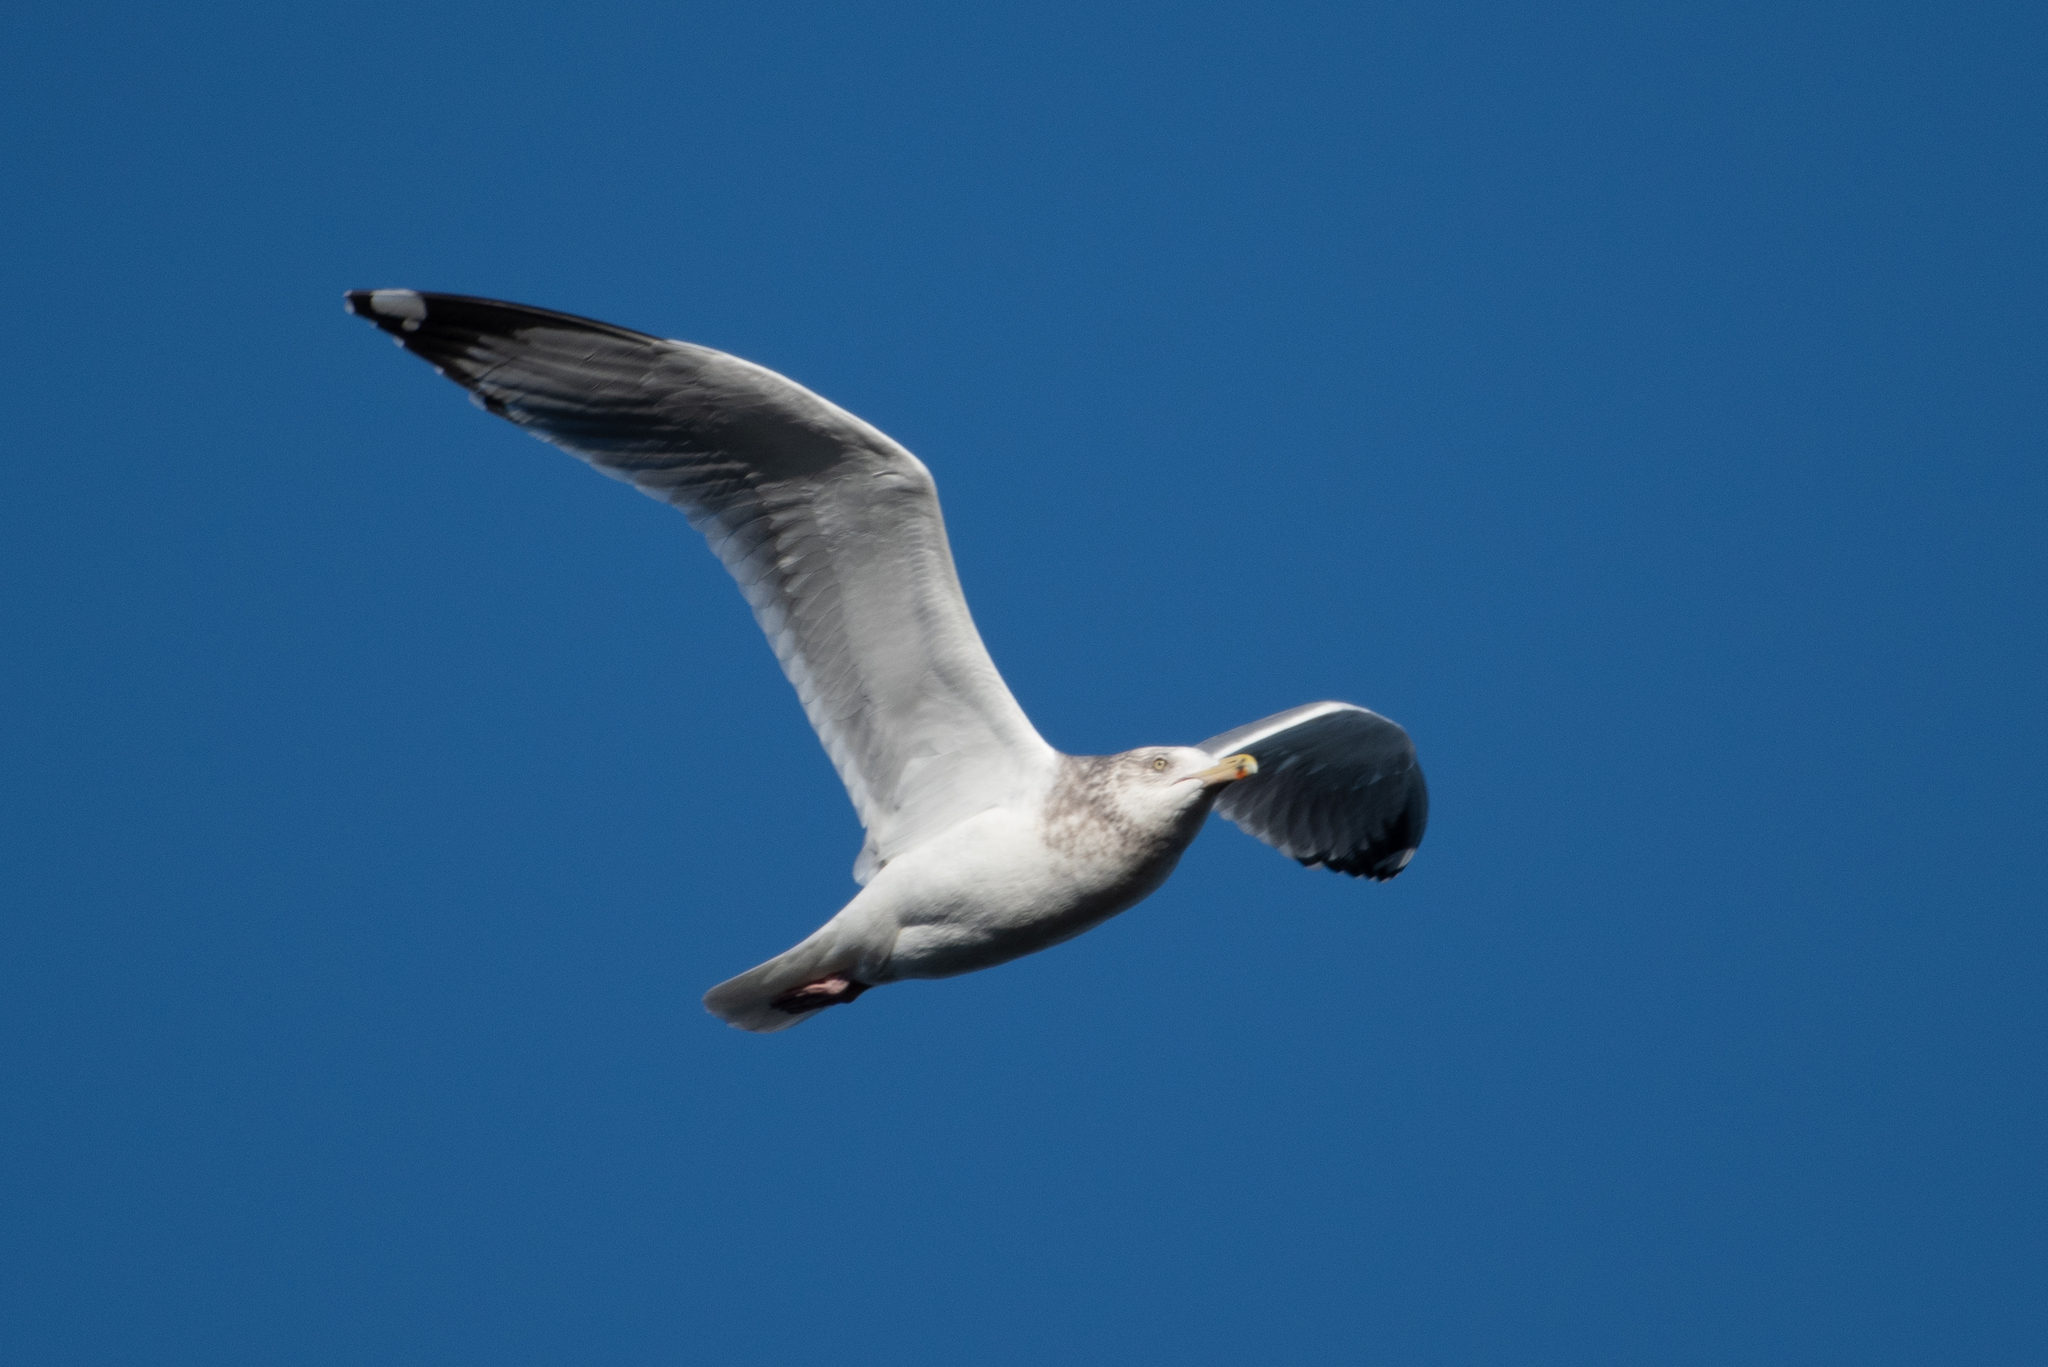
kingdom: Animalia
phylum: Chordata
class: Aves
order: Charadriiformes
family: Laridae
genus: Larus
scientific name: Larus argentatus
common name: Herring gull
